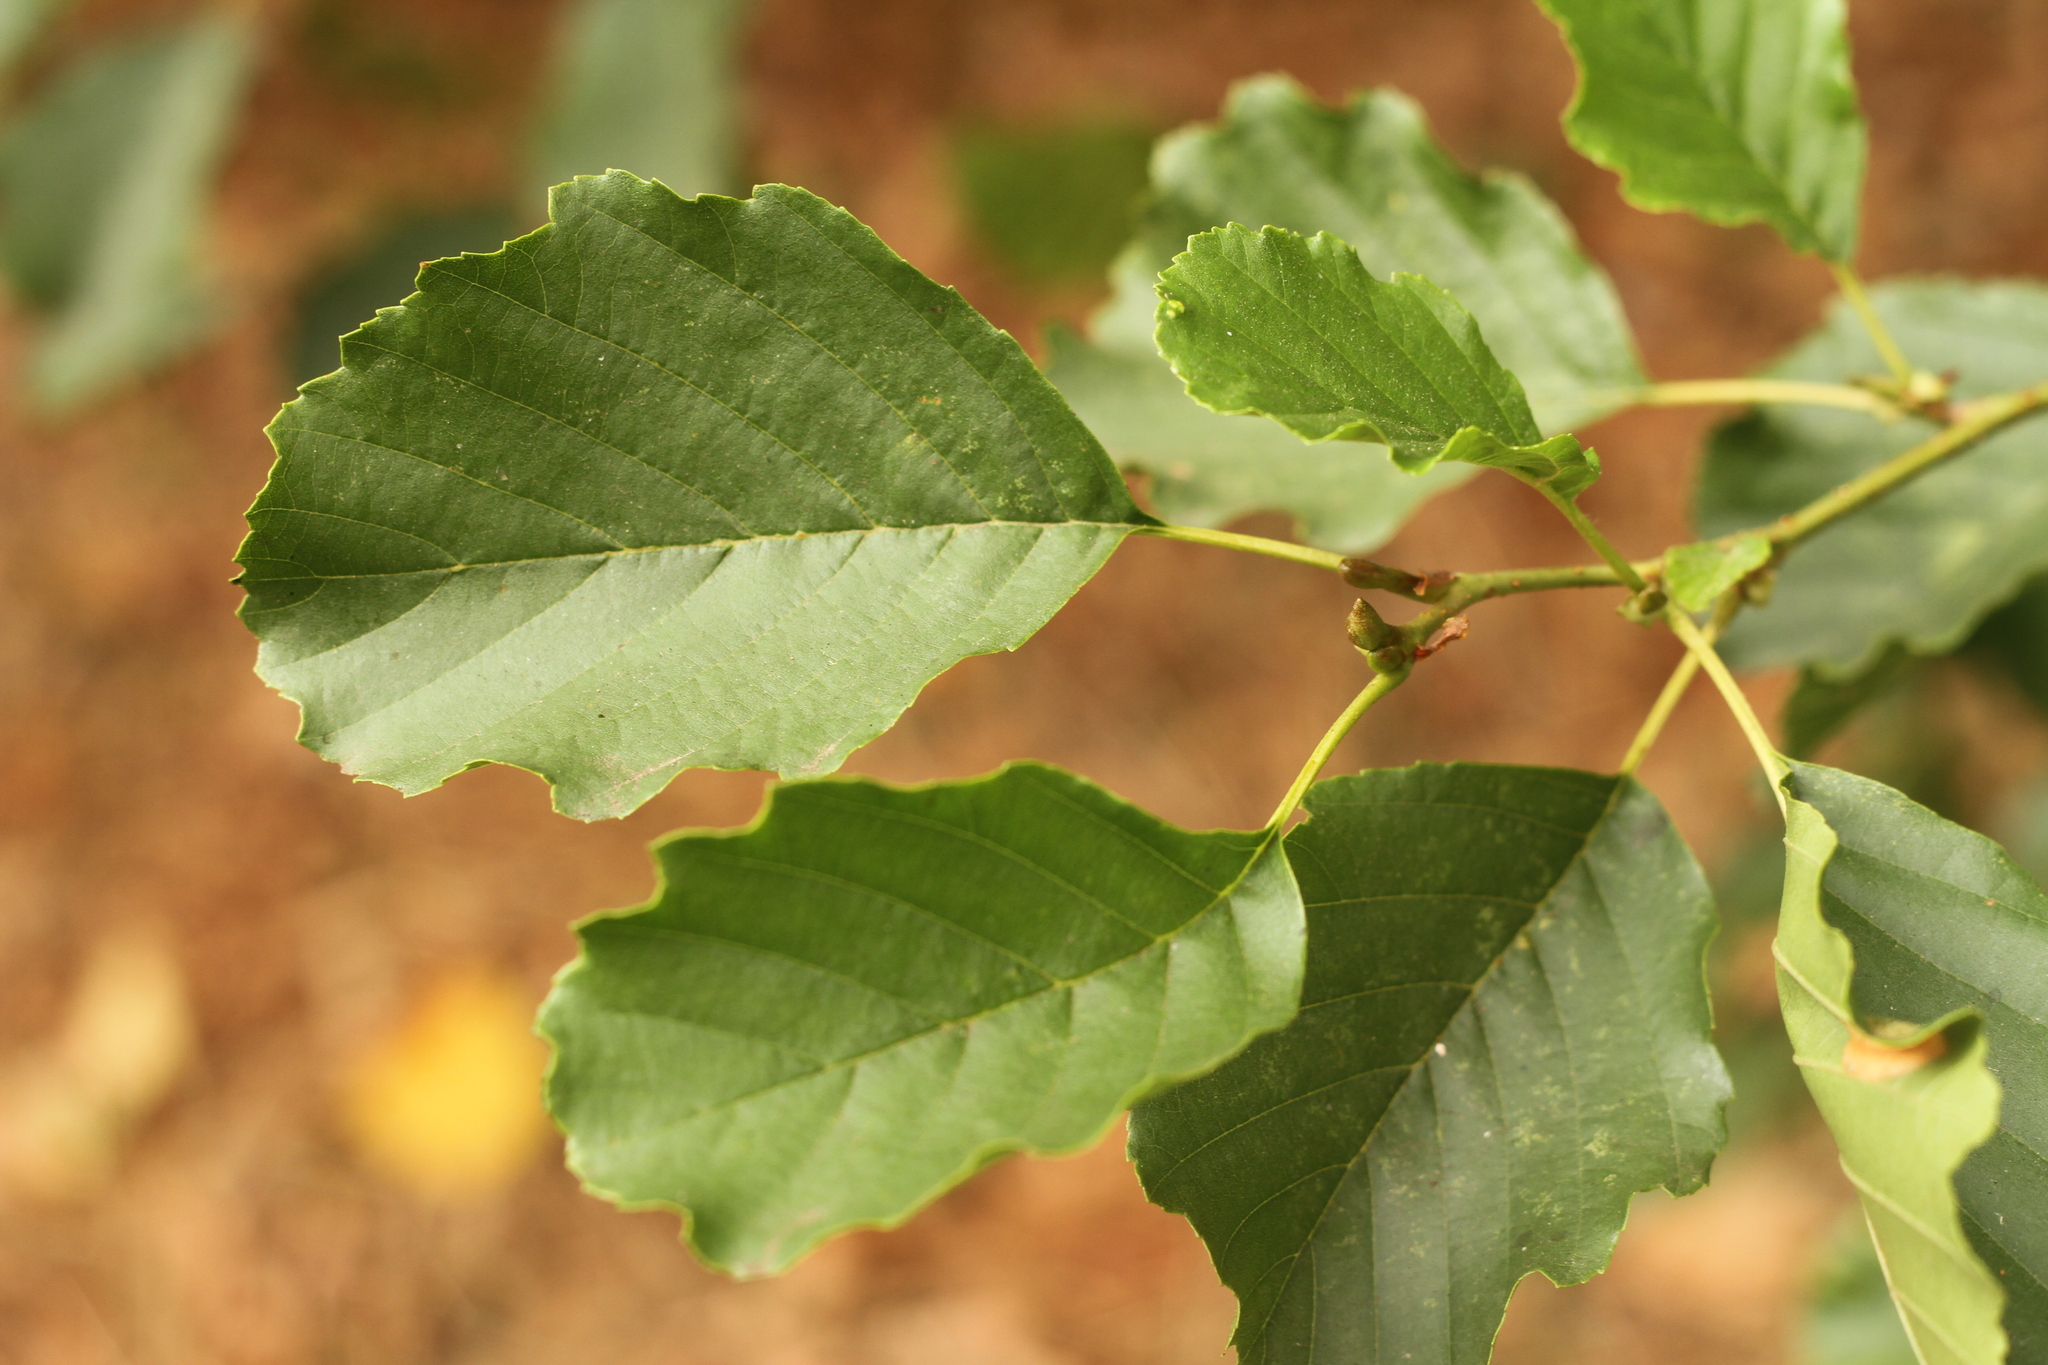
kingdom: Plantae
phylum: Tracheophyta
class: Magnoliopsida
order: Fagales
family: Betulaceae
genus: Alnus
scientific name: Alnus glutinosa
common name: Black alder
